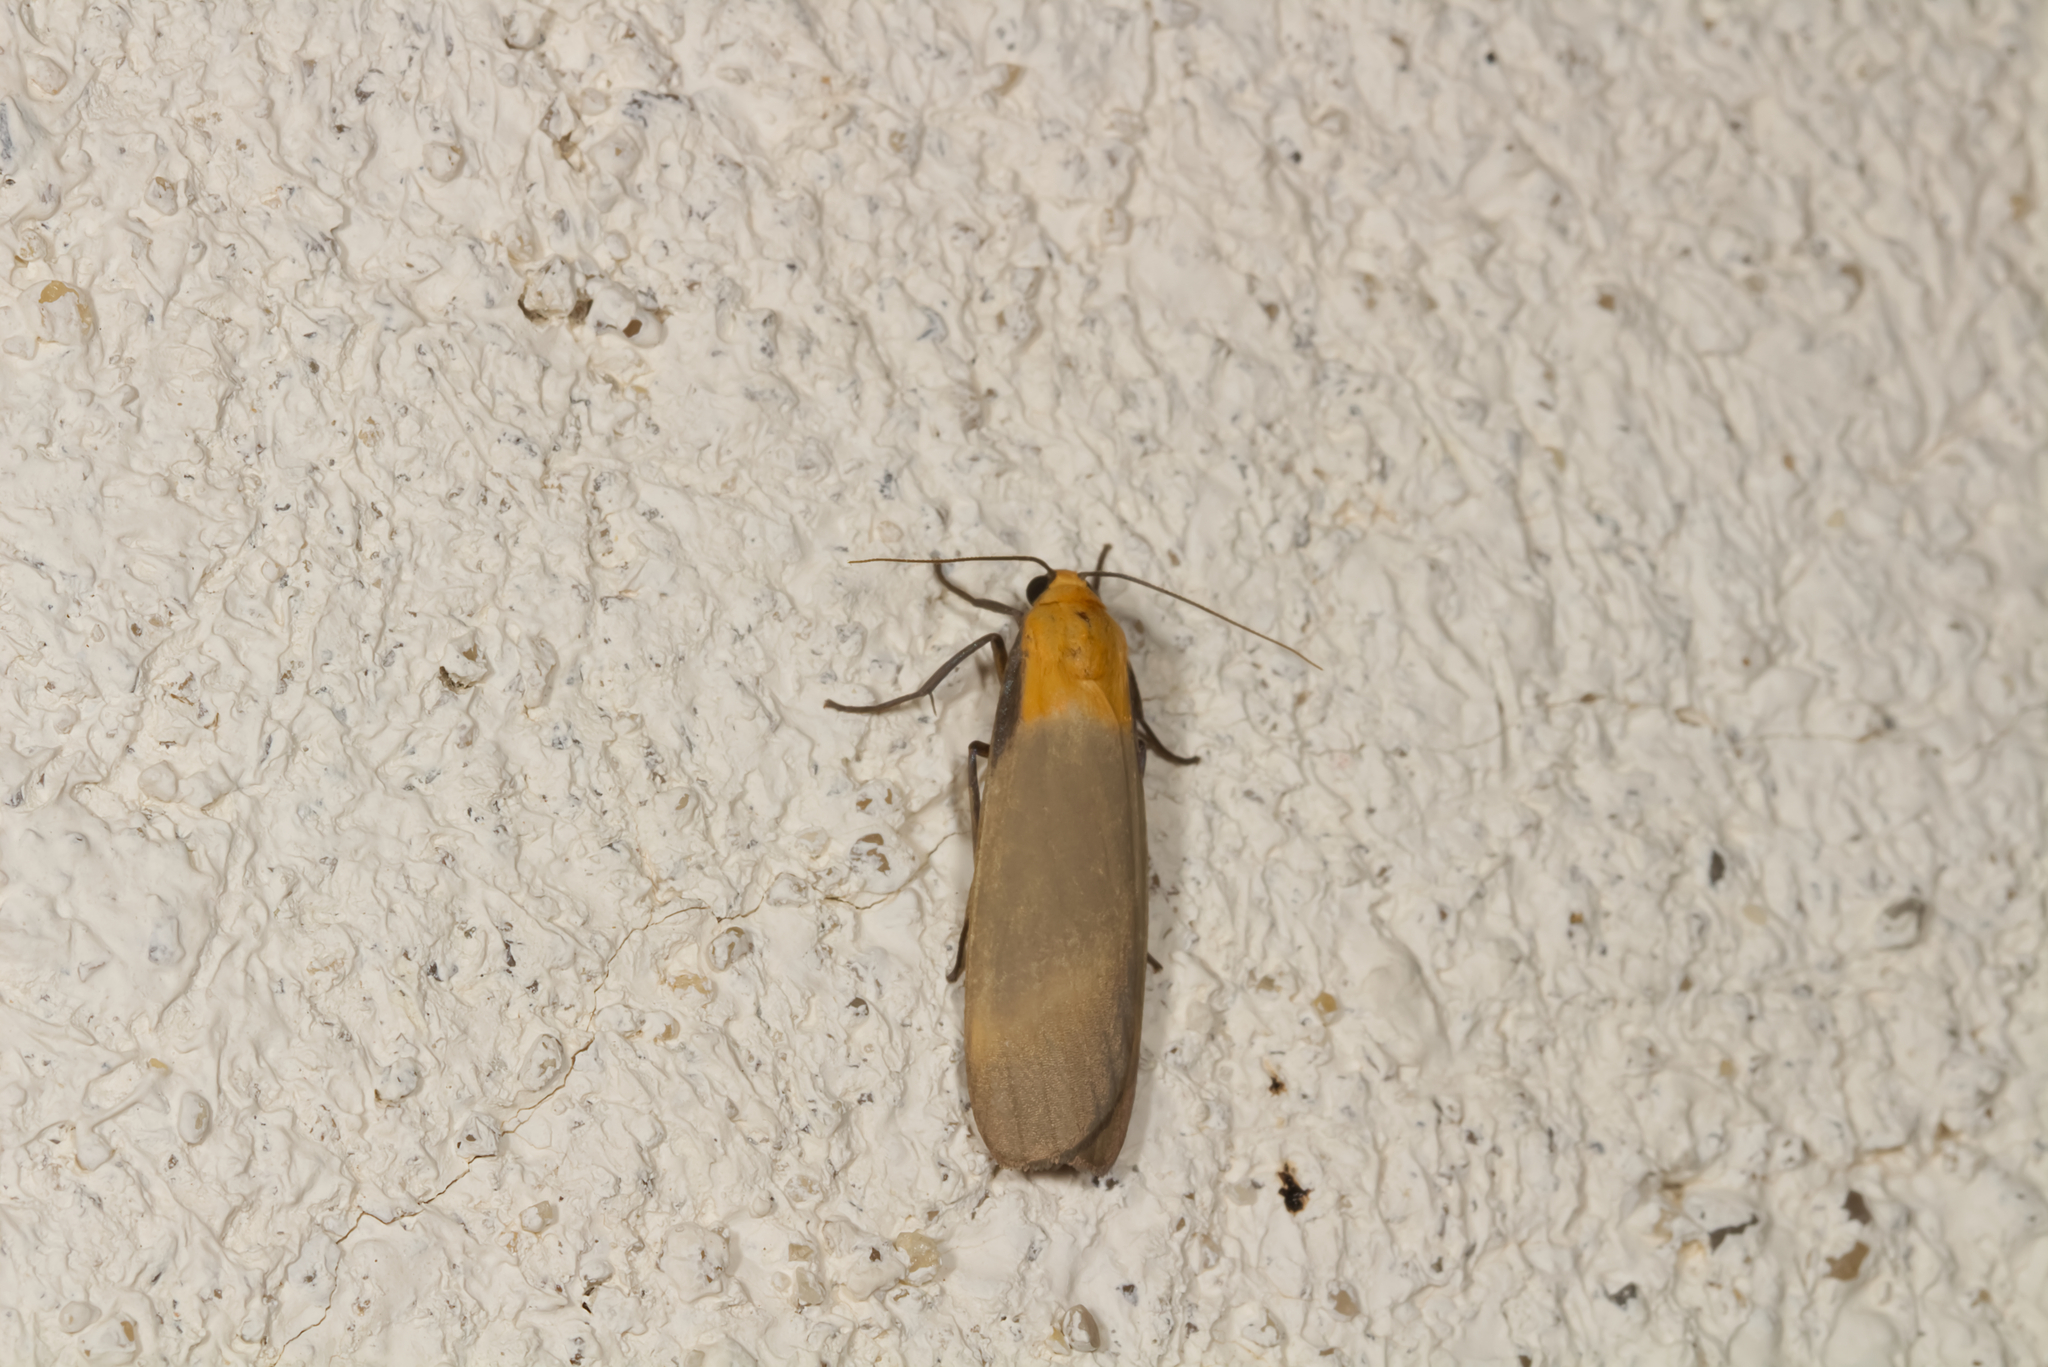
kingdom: Animalia
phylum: Arthropoda
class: Insecta
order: Lepidoptera
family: Erebidae
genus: Lithosia
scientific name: Lithosia quadra
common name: Four-spotted footman
